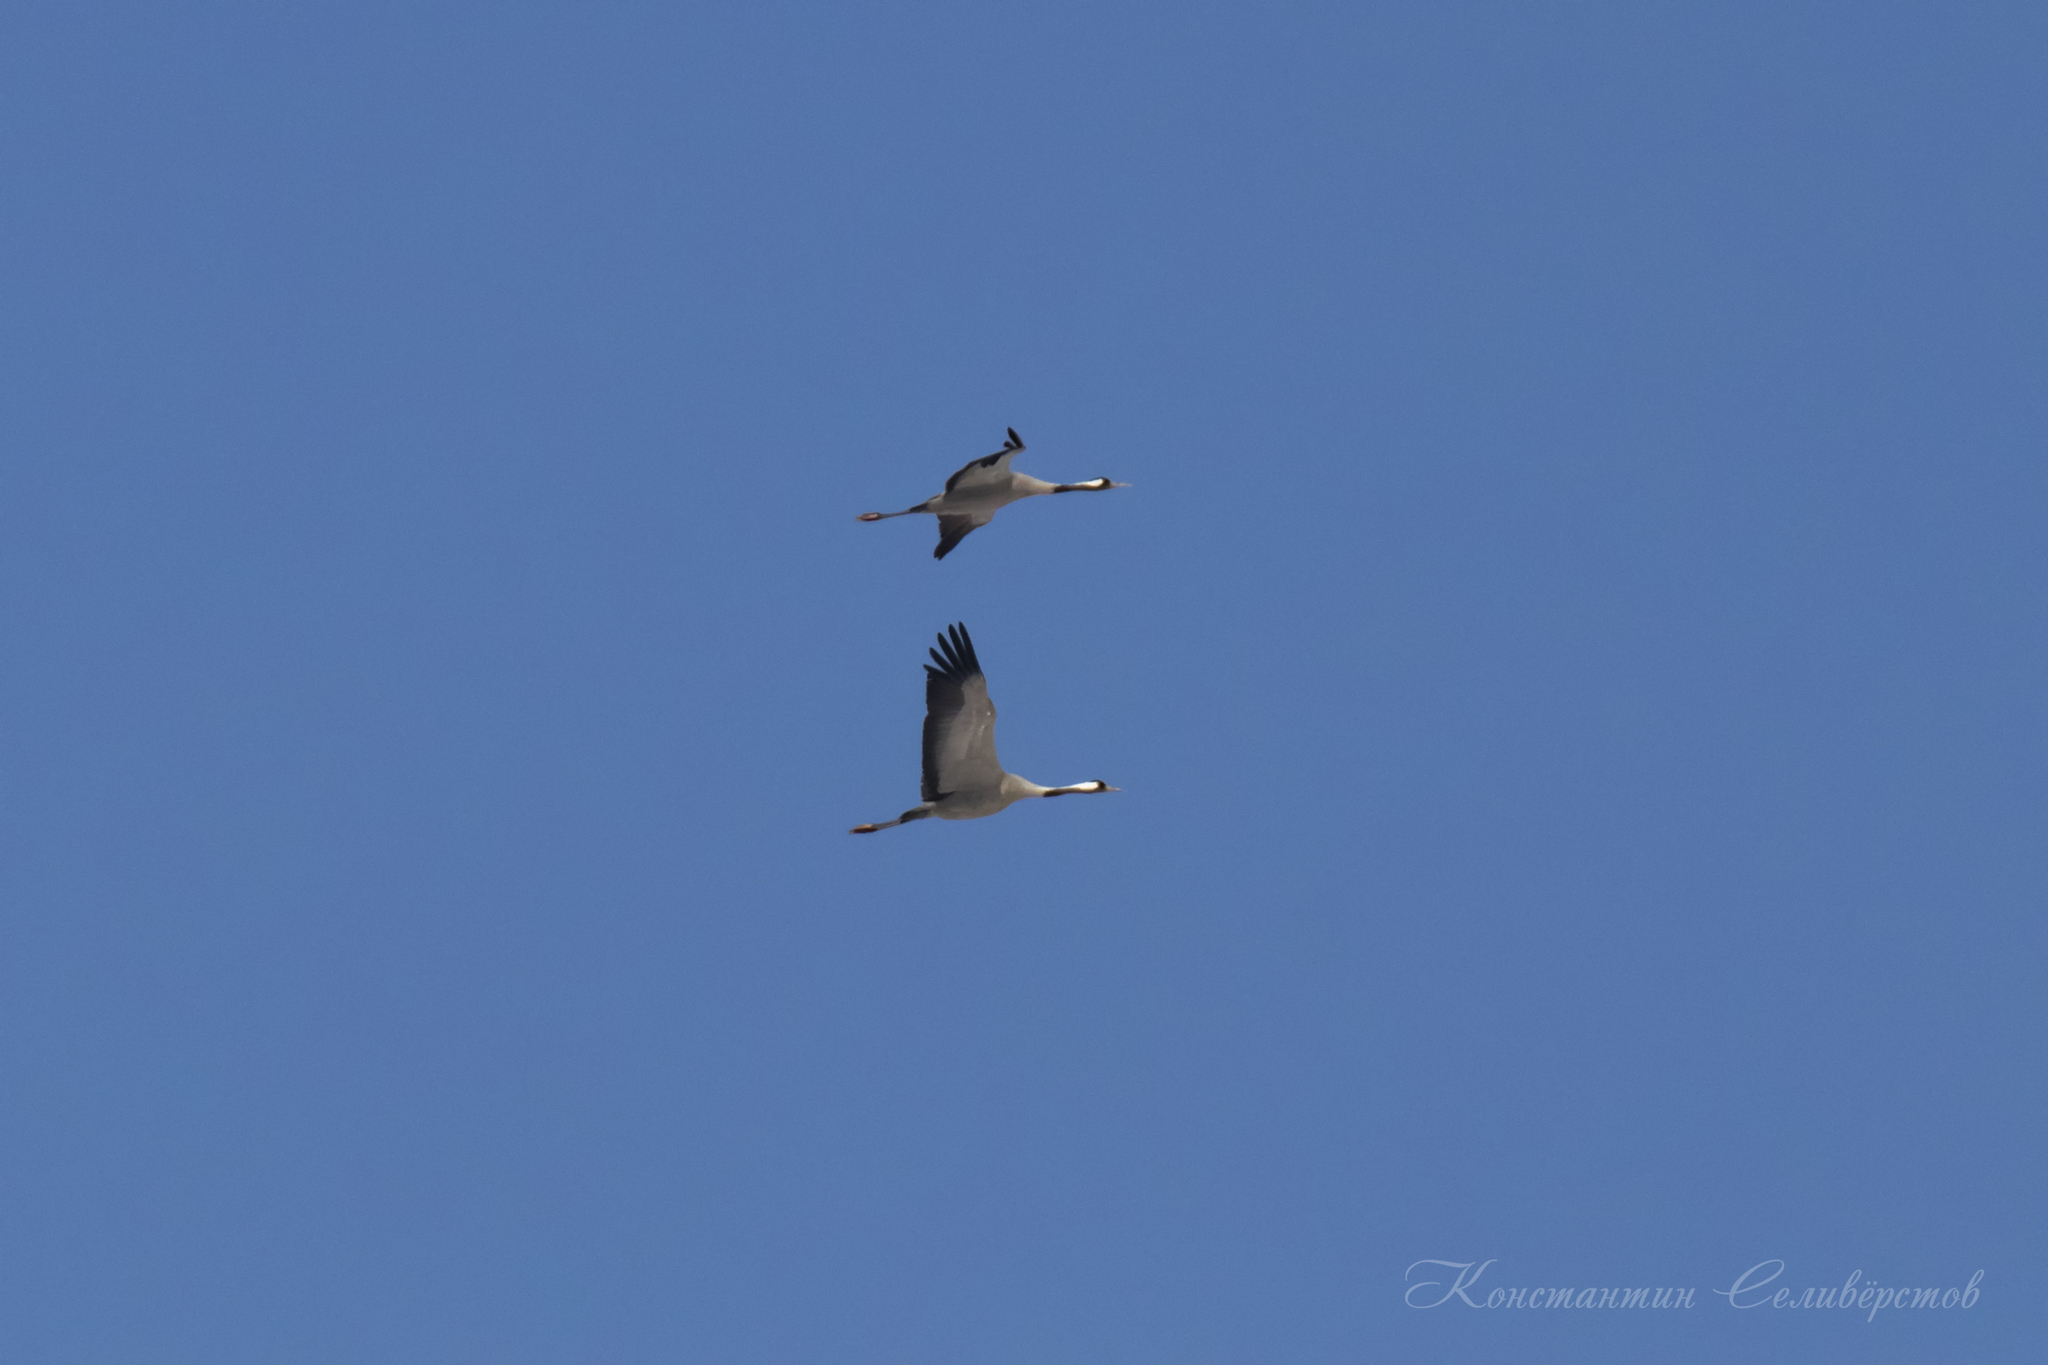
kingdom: Animalia
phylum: Chordata
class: Aves
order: Gruiformes
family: Gruidae
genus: Grus
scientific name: Grus grus
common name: Common crane
